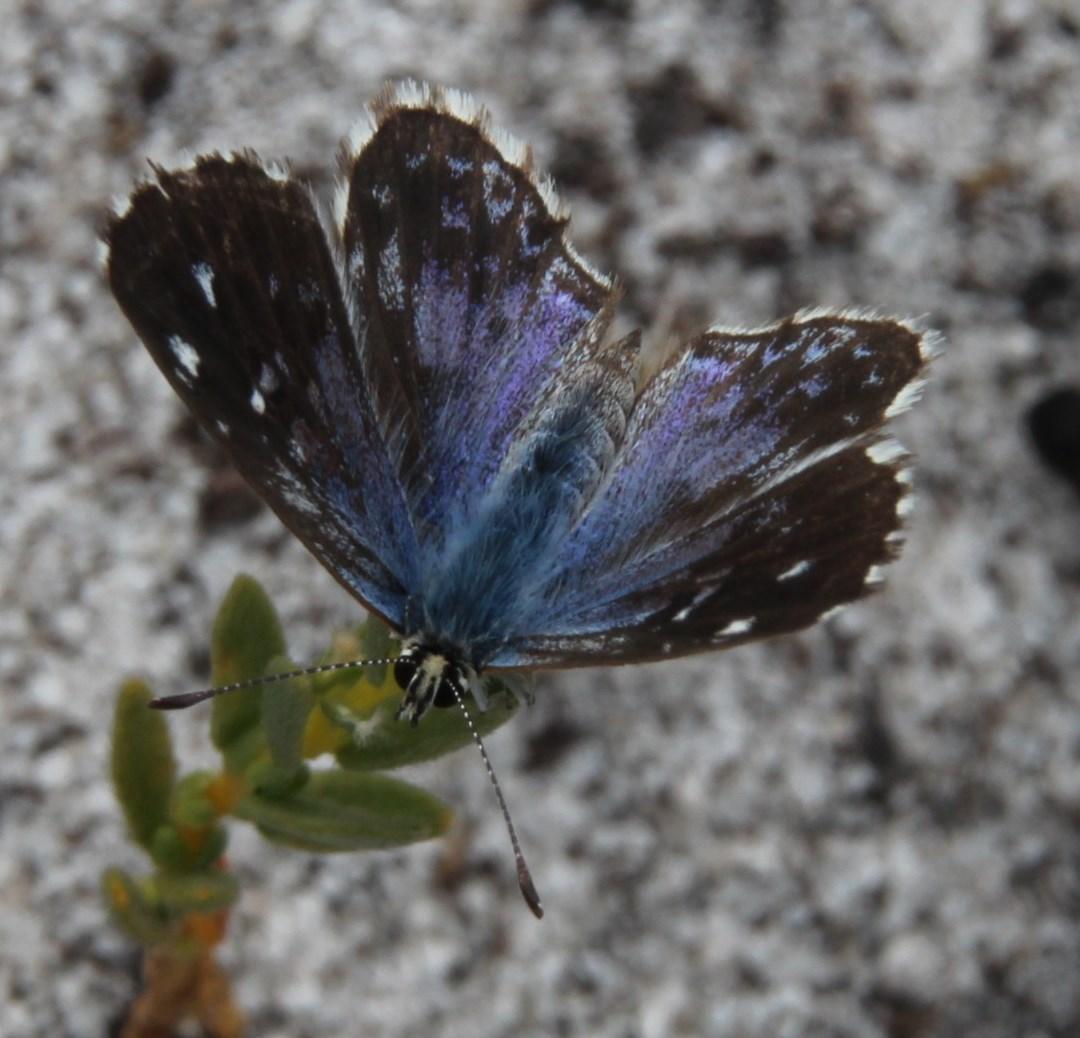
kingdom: Animalia
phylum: Arthropoda
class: Insecta
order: Lepidoptera
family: Lycaenidae
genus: Tarucus
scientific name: Tarucus thespis
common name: Vivid dotted blue
